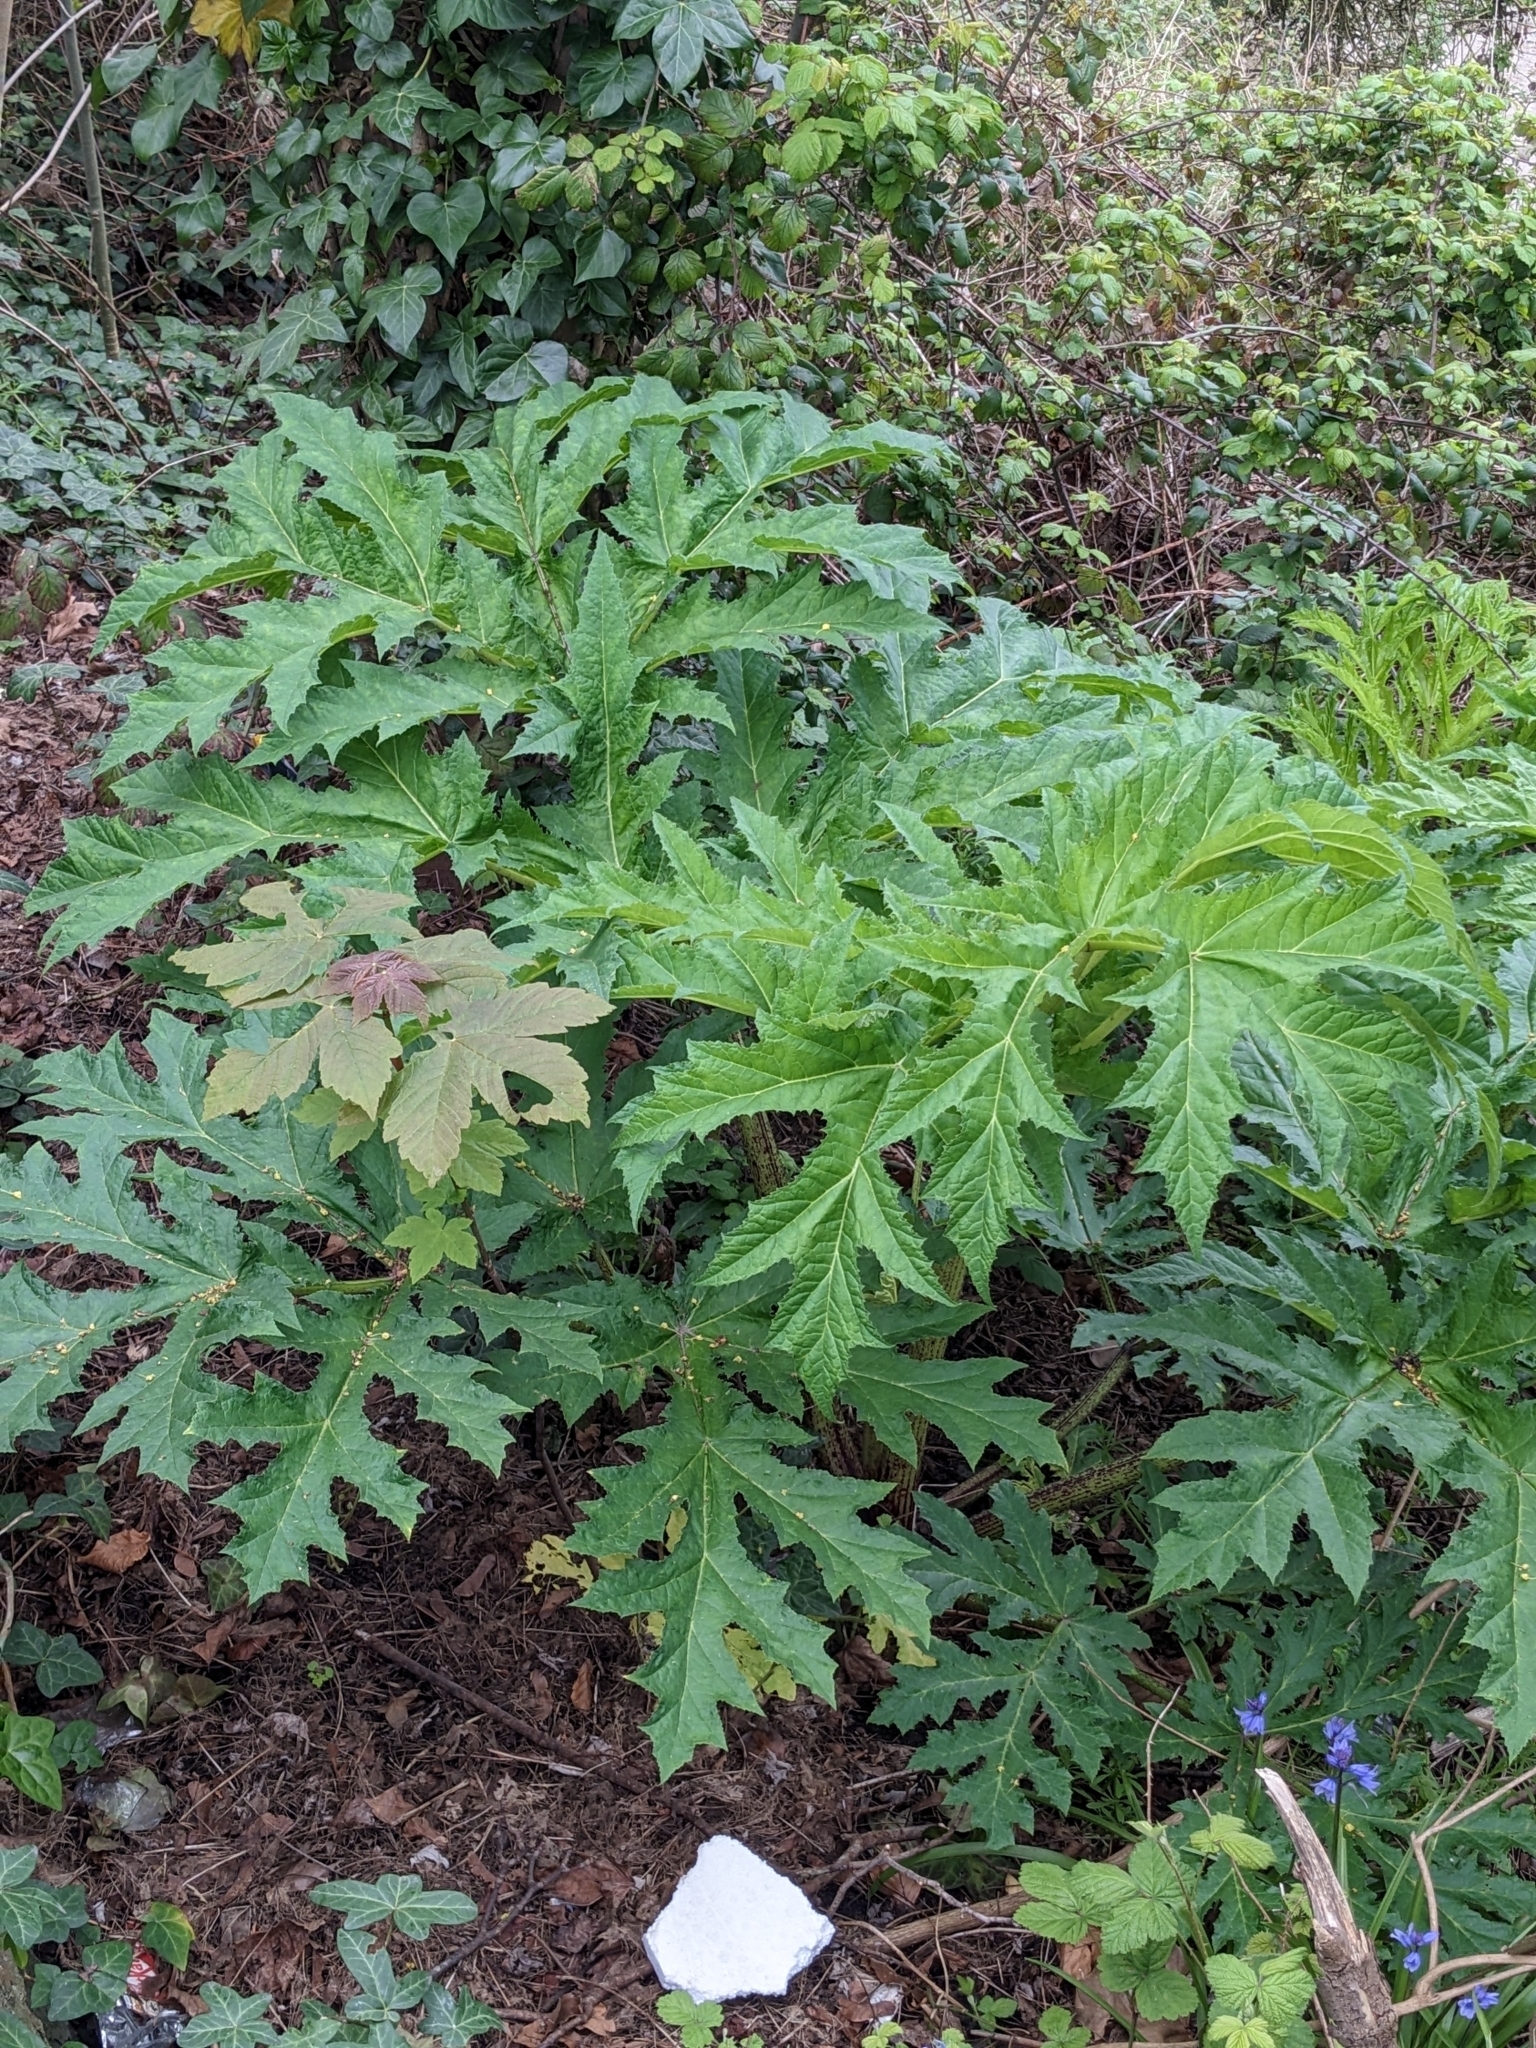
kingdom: Plantae
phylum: Tracheophyta
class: Magnoliopsida
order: Apiales
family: Apiaceae
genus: Heracleum
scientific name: Heracleum mantegazzianum
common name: Giant hogweed
